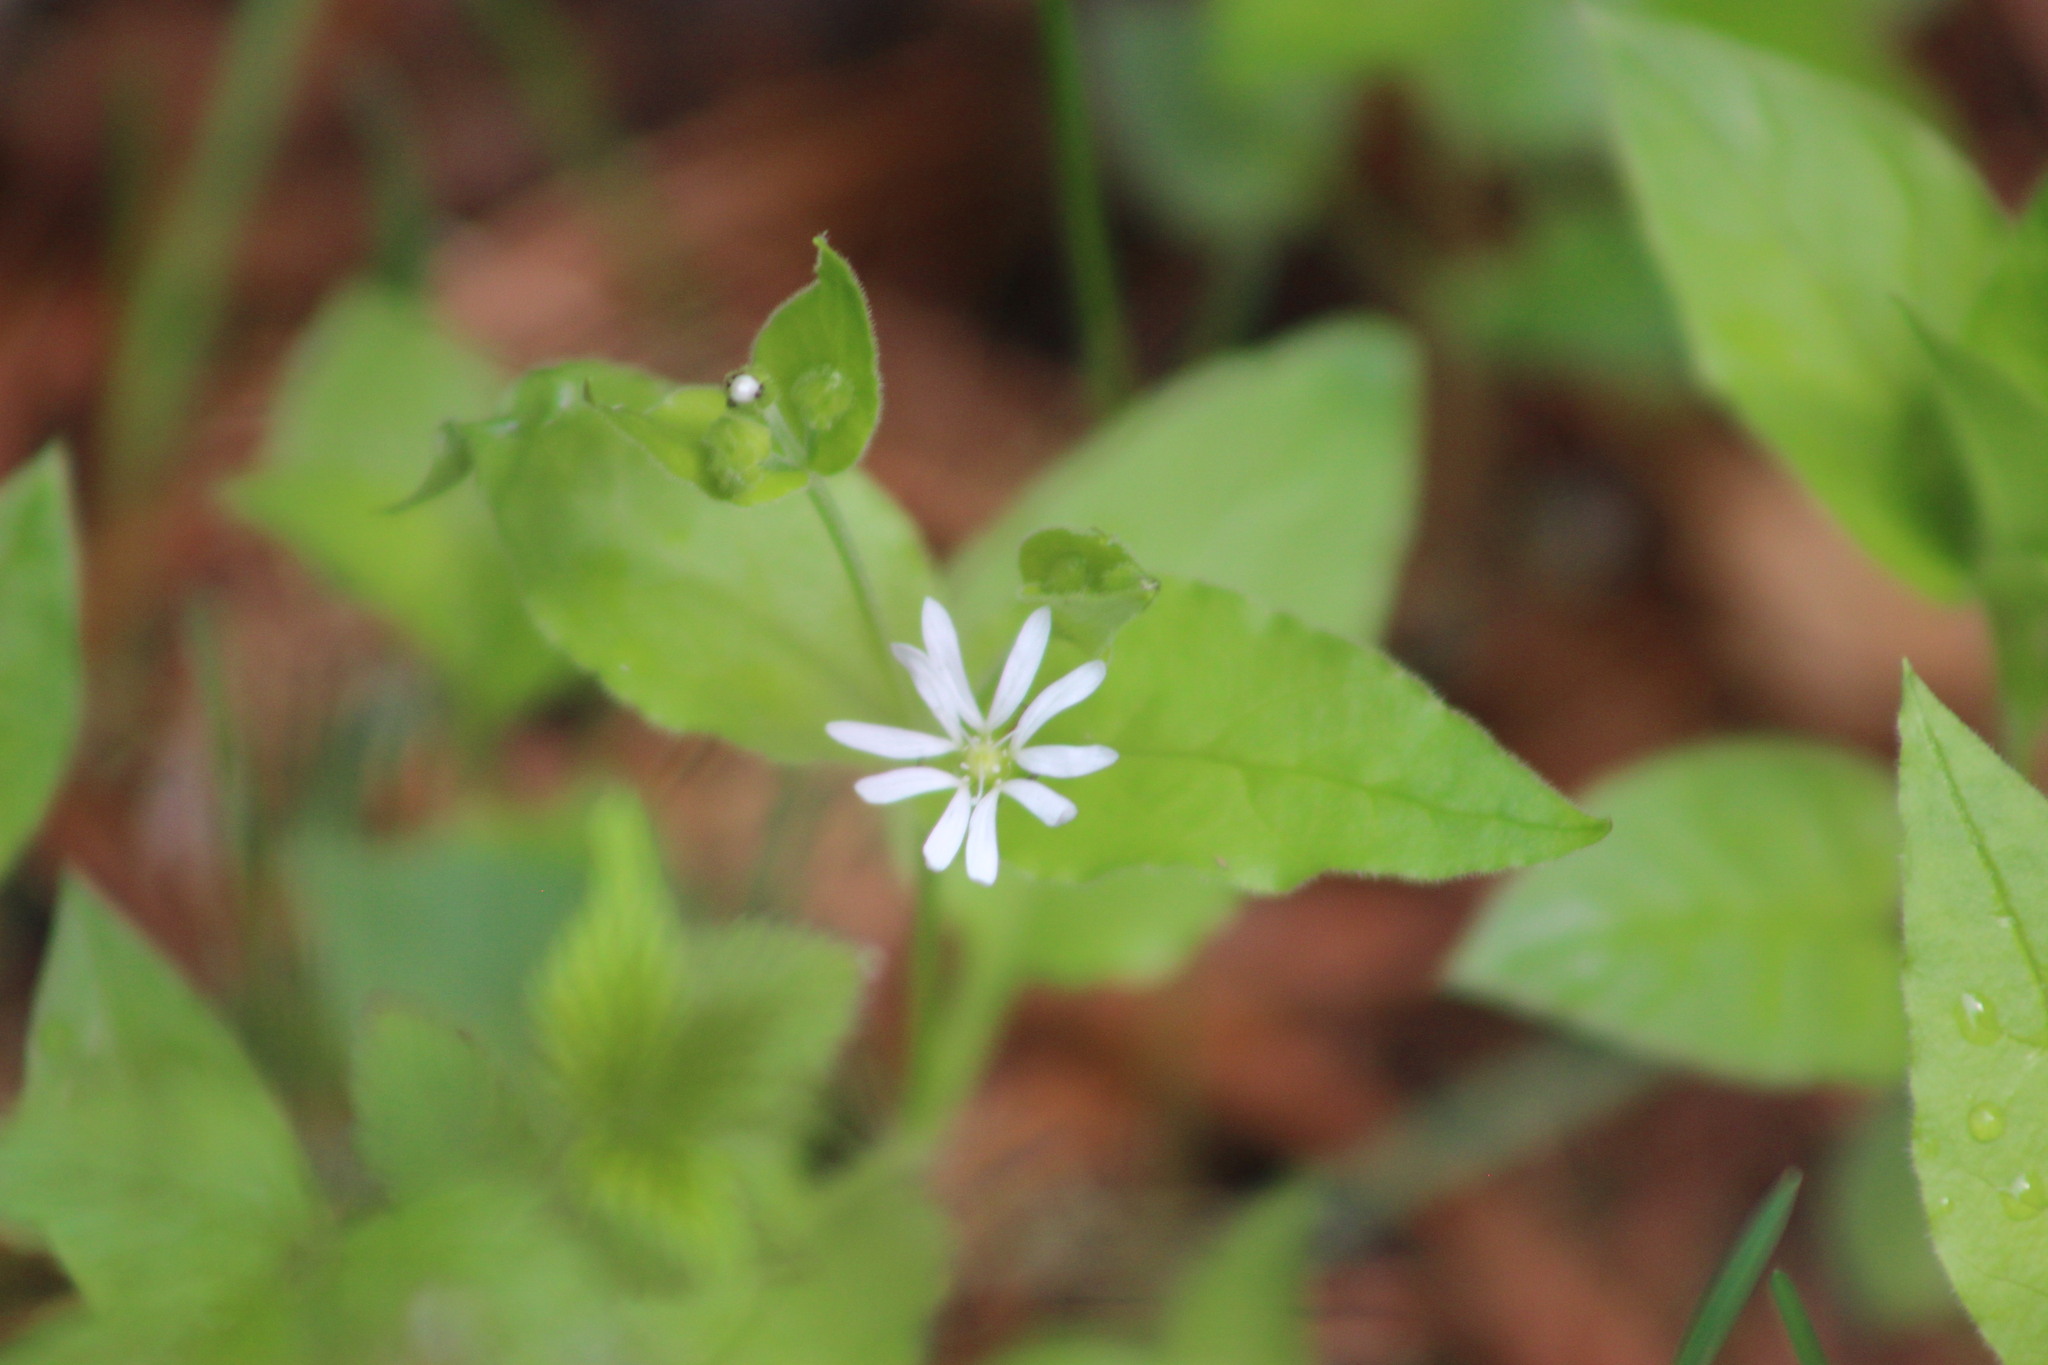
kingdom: Plantae
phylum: Tracheophyta
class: Magnoliopsida
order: Caryophyllales
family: Caryophyllaceae
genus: Stellaria
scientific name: Stellaria bungeana
